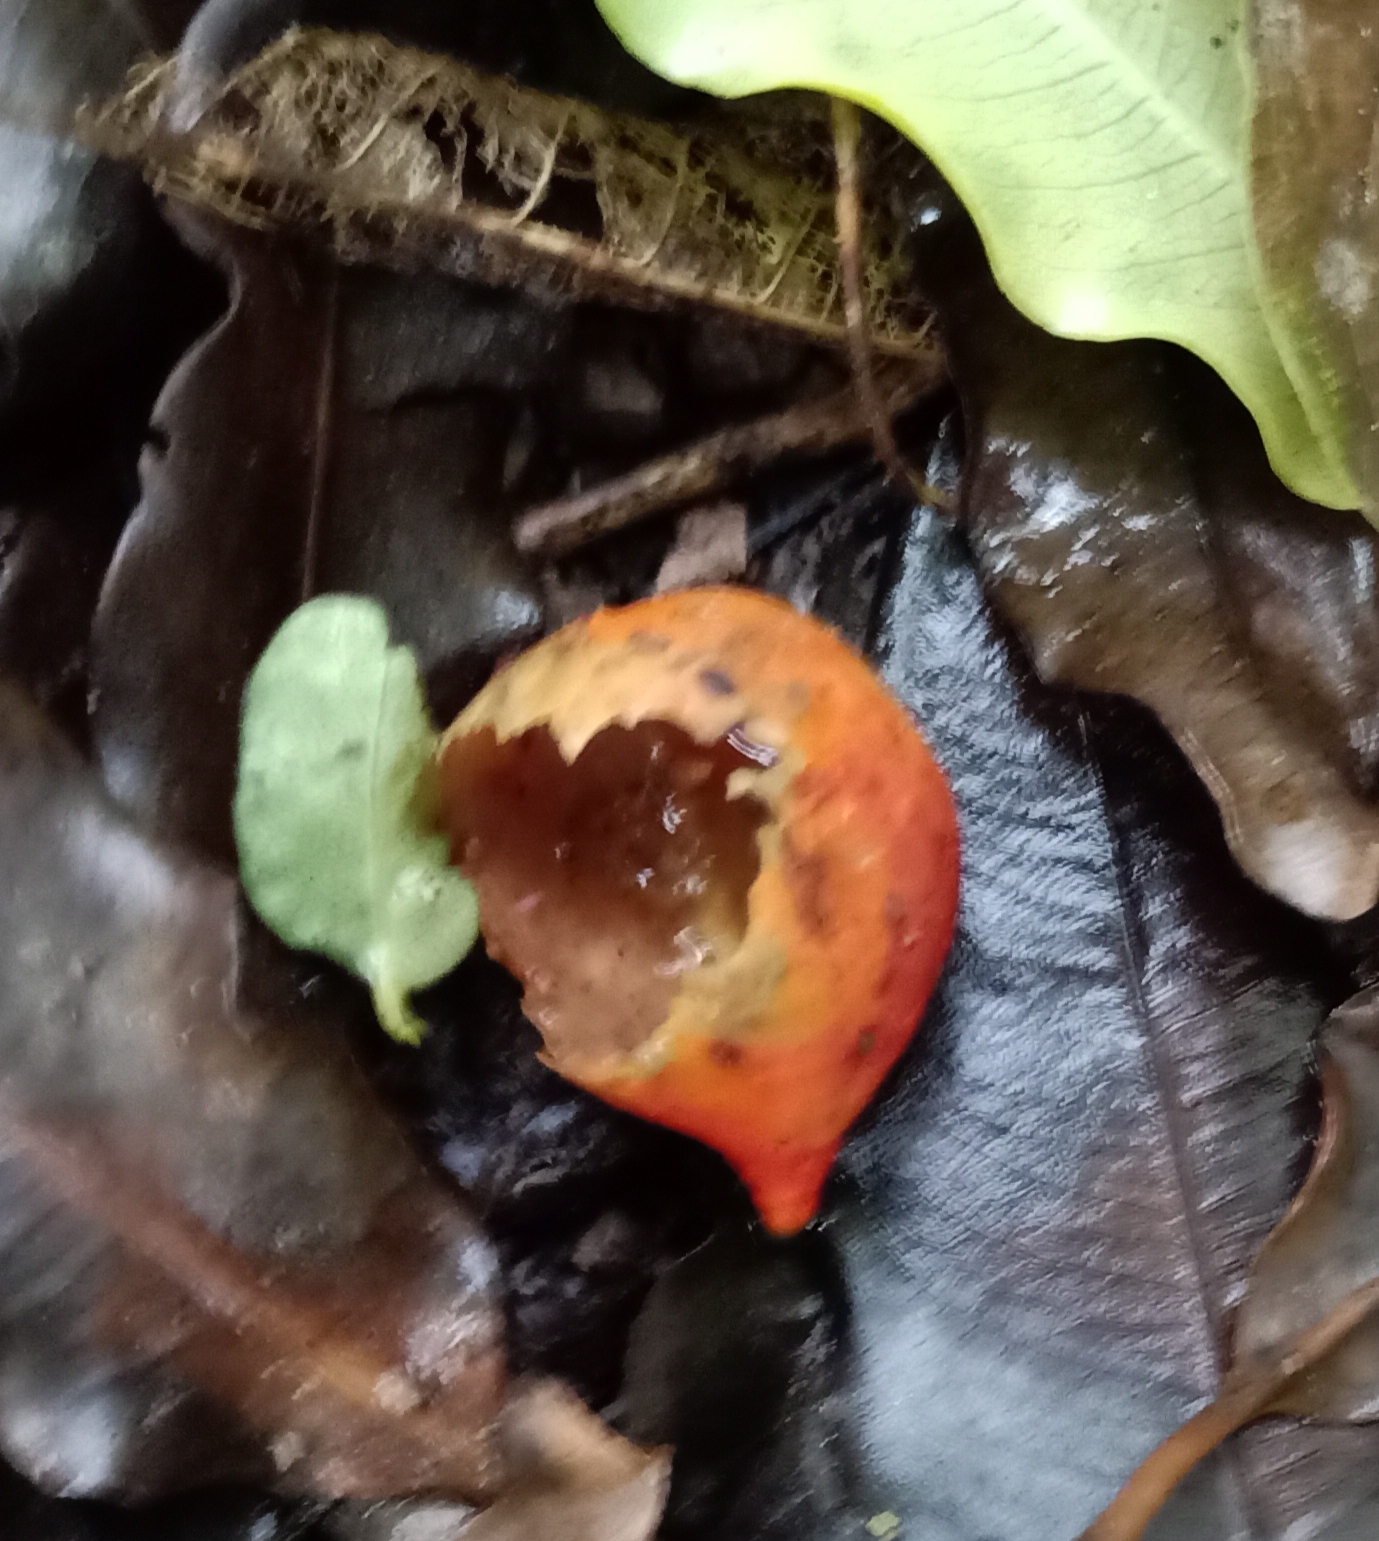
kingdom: Plantae
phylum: Tracheophyta
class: Magnoliopsida
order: Malpighiales
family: Passifloraceae
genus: Passiflora
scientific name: Passiflora tetrandra
